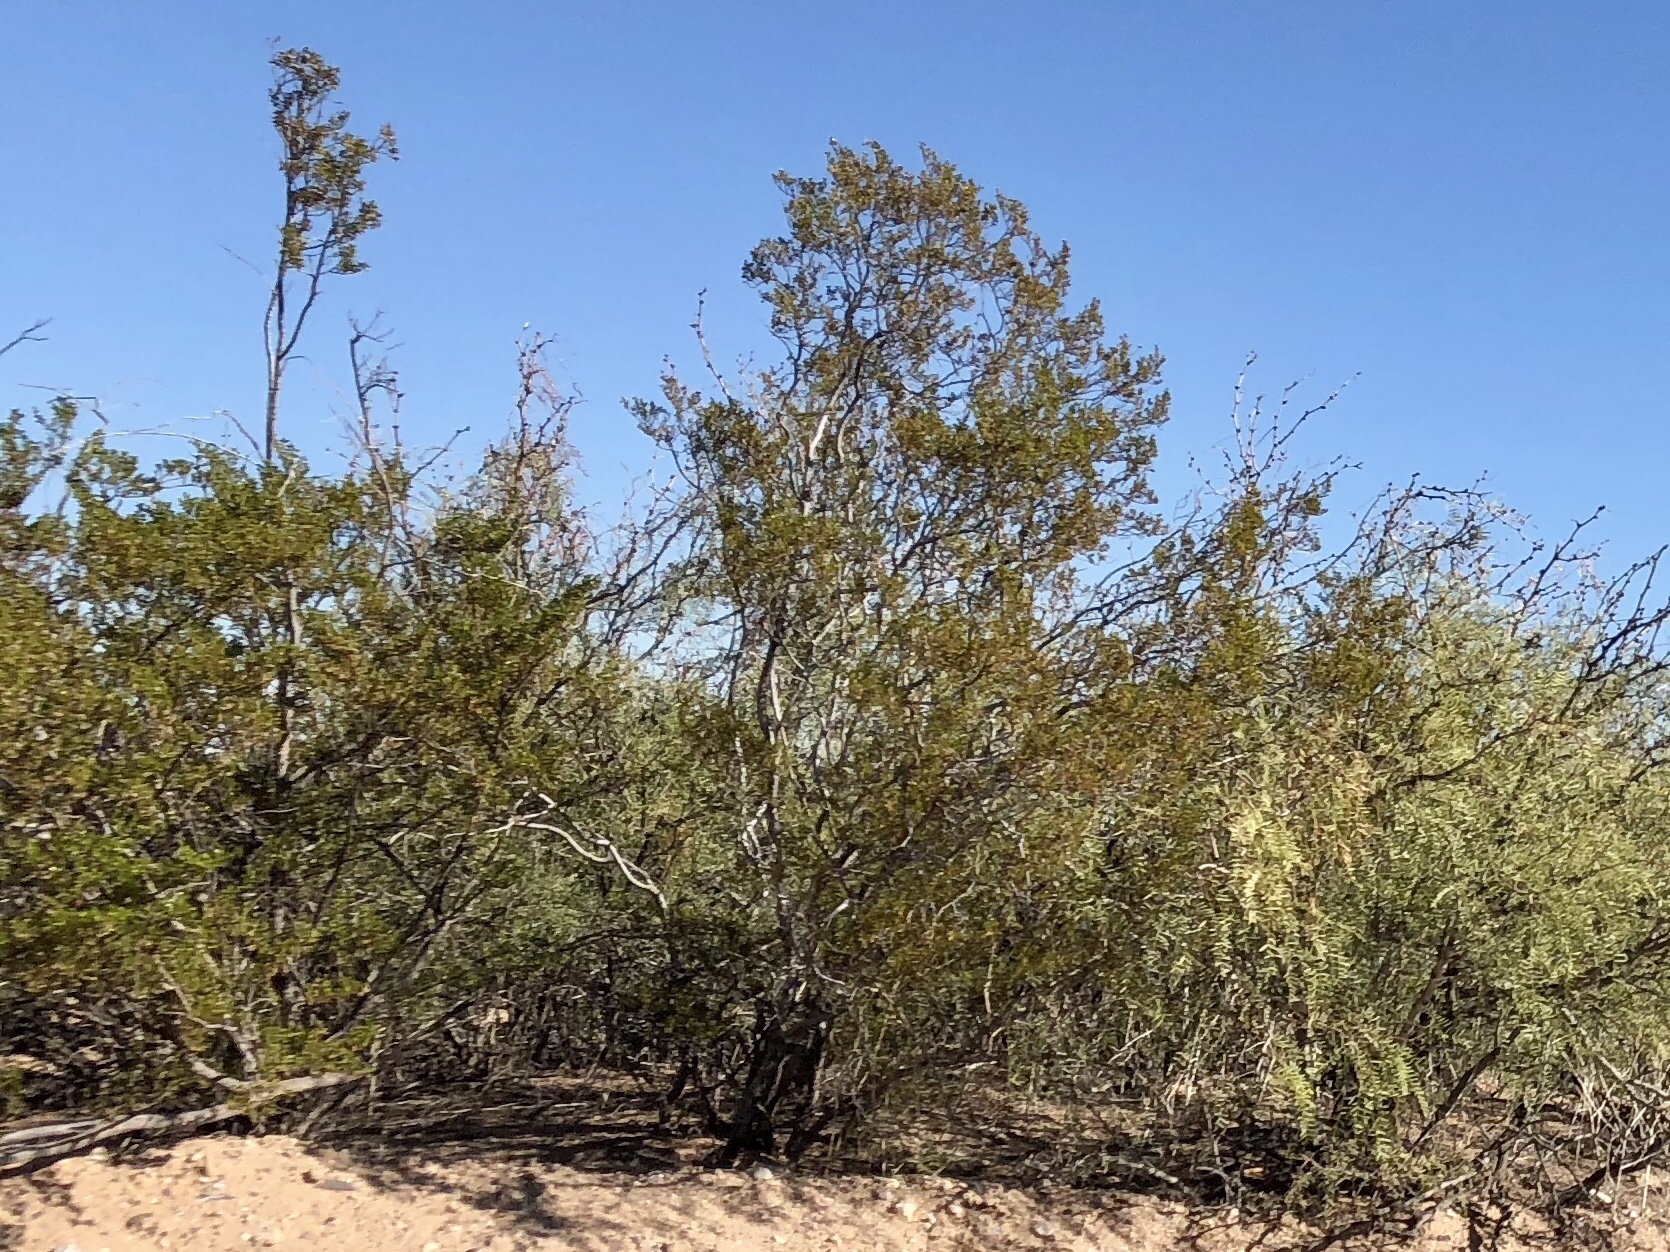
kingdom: Plantae
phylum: Tracheophyta
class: Magnoliopsida
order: Zygophyllales
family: Zygophyllaceae
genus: Larrea
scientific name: Larrea tridentata
